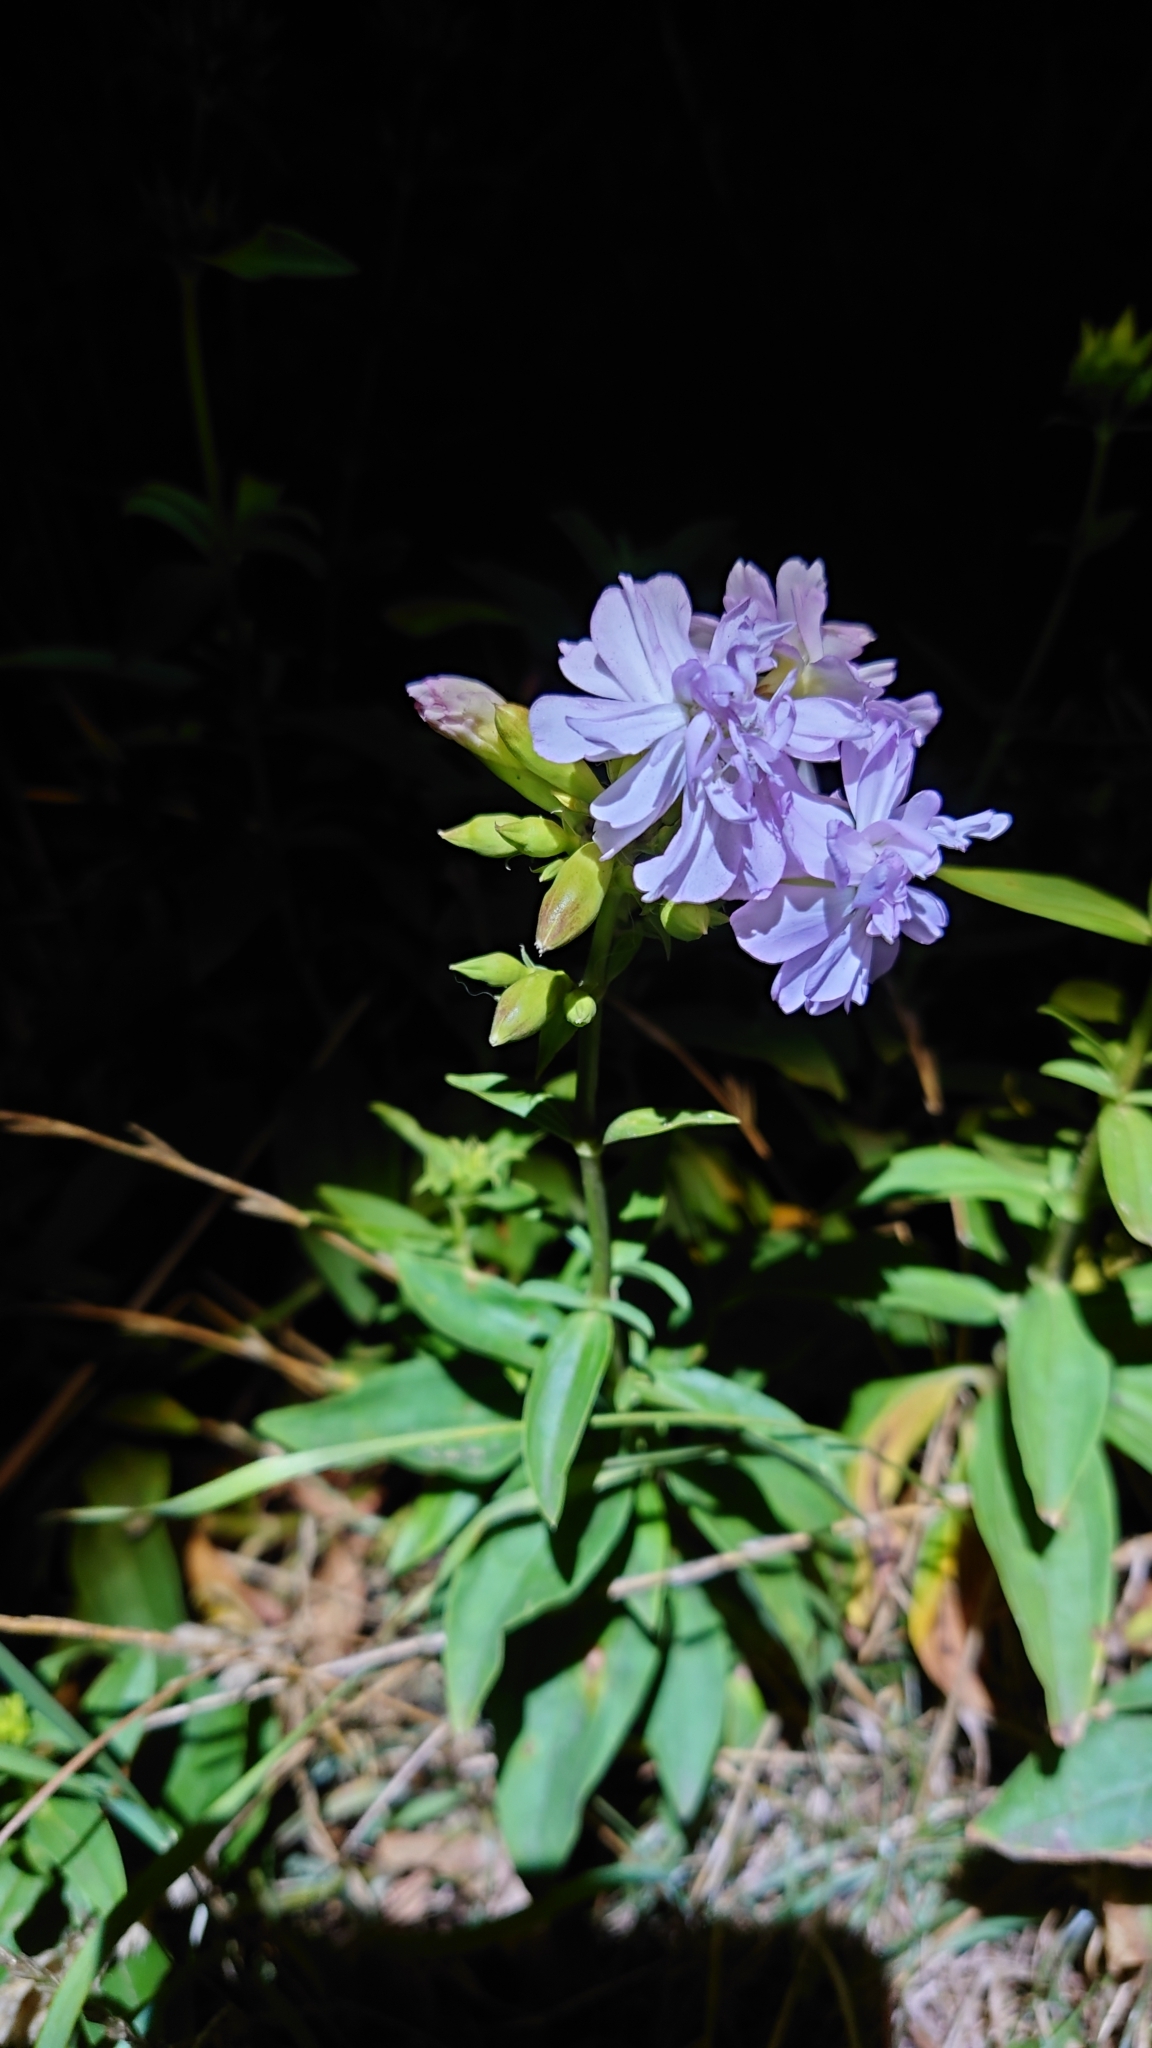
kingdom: Plantae
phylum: Tracheophyta
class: Magnoliopsida
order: Caryophyllales
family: Caryophyllaceae
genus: Saponaria
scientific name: Saponaria officinalis
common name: Soapwort
